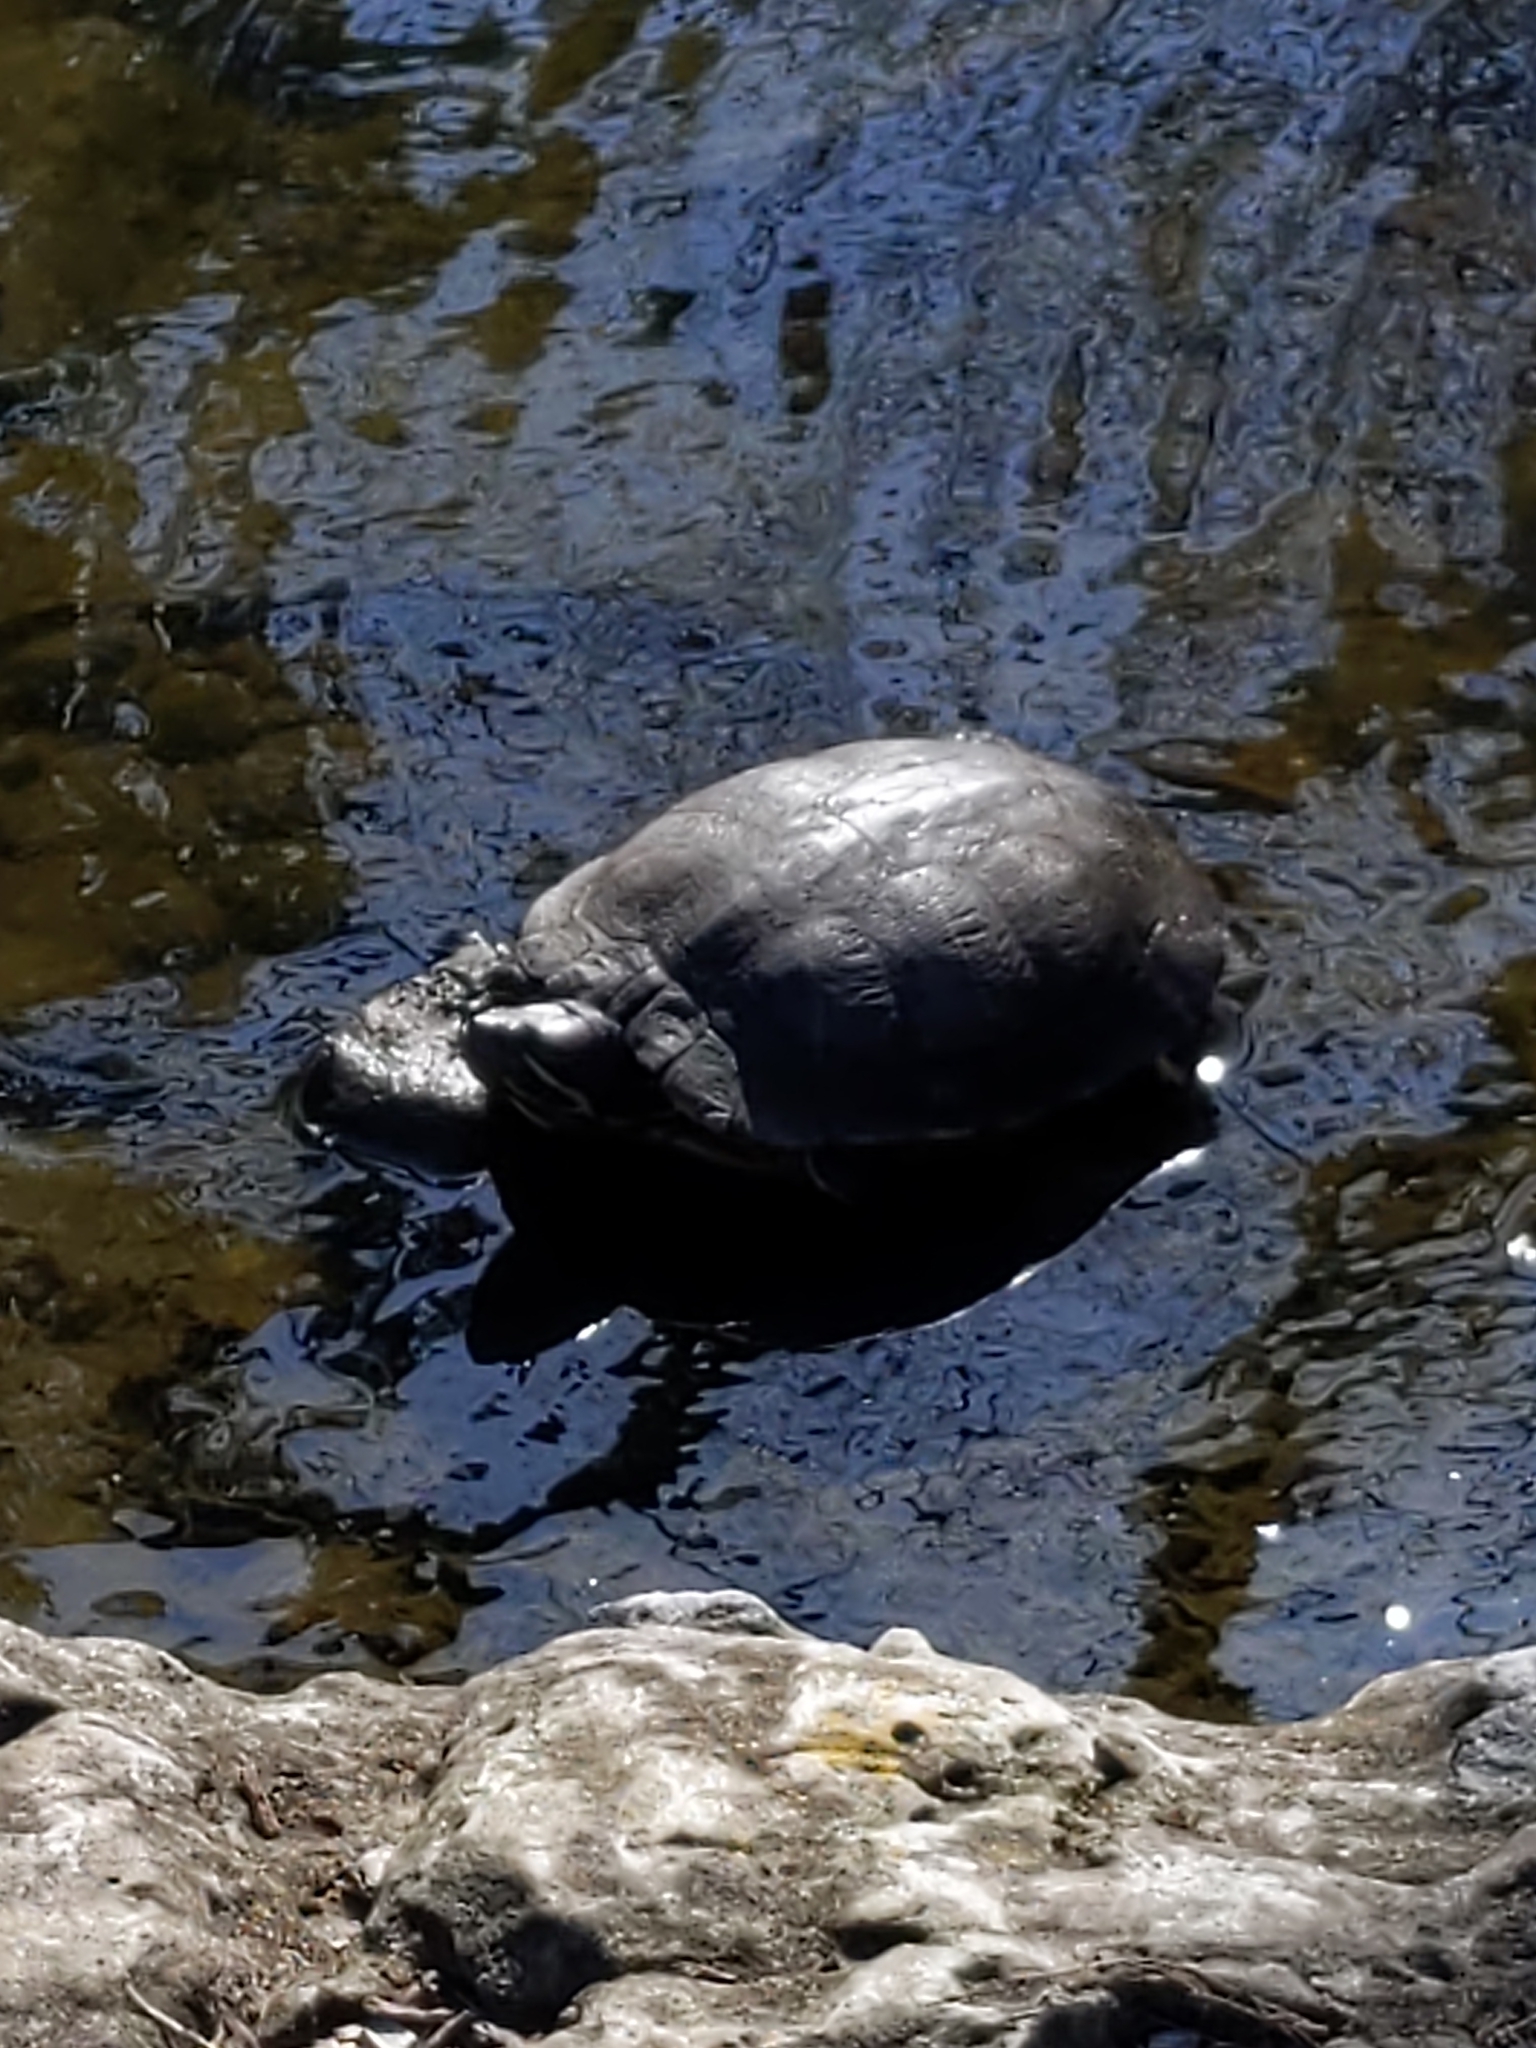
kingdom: Animalia
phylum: Chordata
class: Testudines
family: Emydidae
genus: Trachemys
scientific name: Trachemys scripta
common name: Slider
